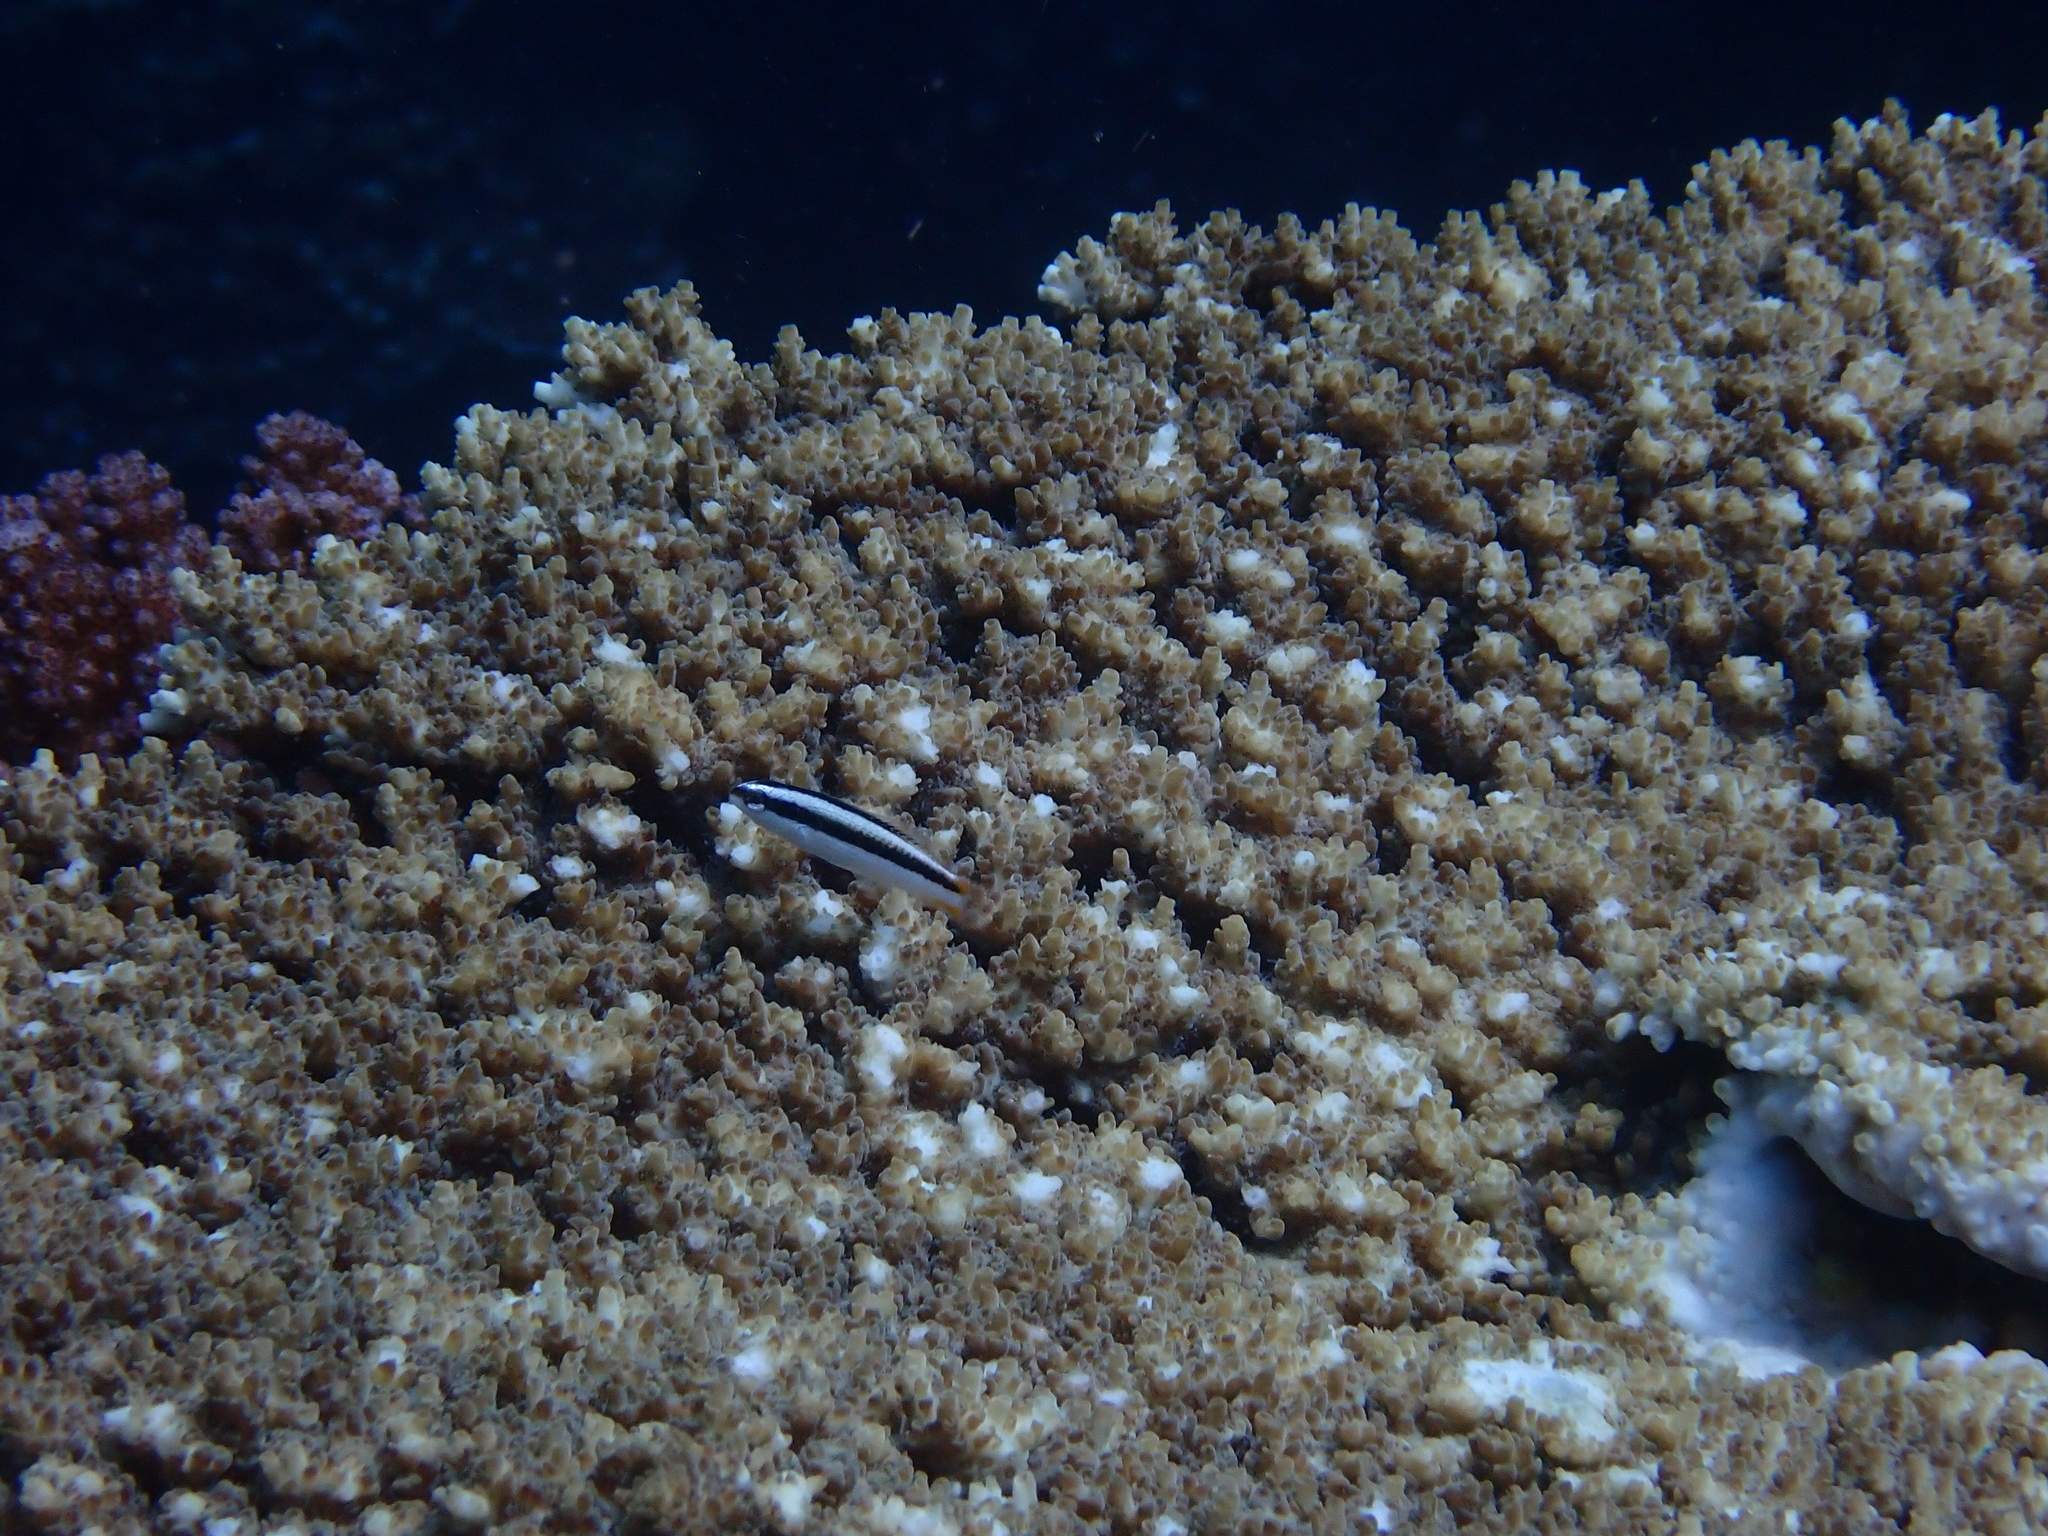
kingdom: Animalia
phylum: Chordata
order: Perciformes
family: Labridae
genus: Thalassoma
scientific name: Thalassoma amblycephalum
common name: Bluehead wrasse
